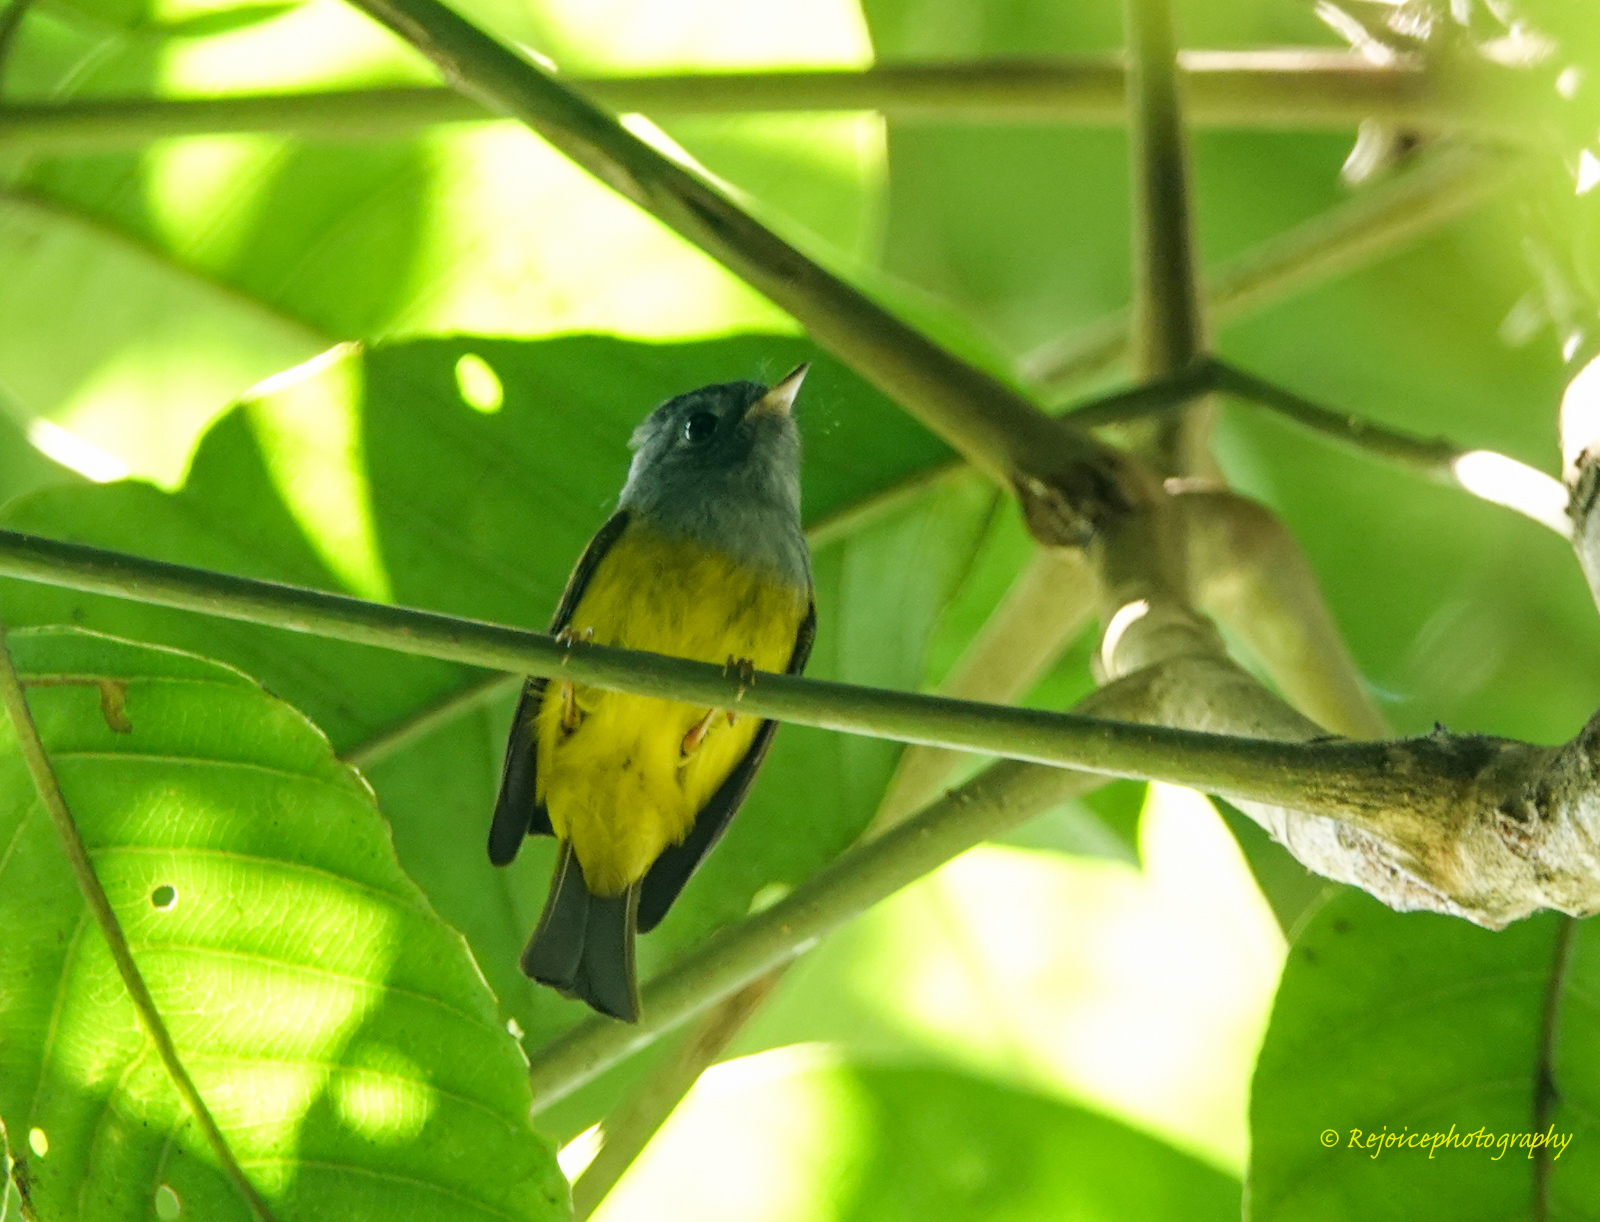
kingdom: Animalia
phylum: Chordata
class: Aves
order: Passeriformes
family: Stenostiridae
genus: Culicicapa
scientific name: Culicicapa ceylonensis
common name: Grey-headed canary-flycatcher
